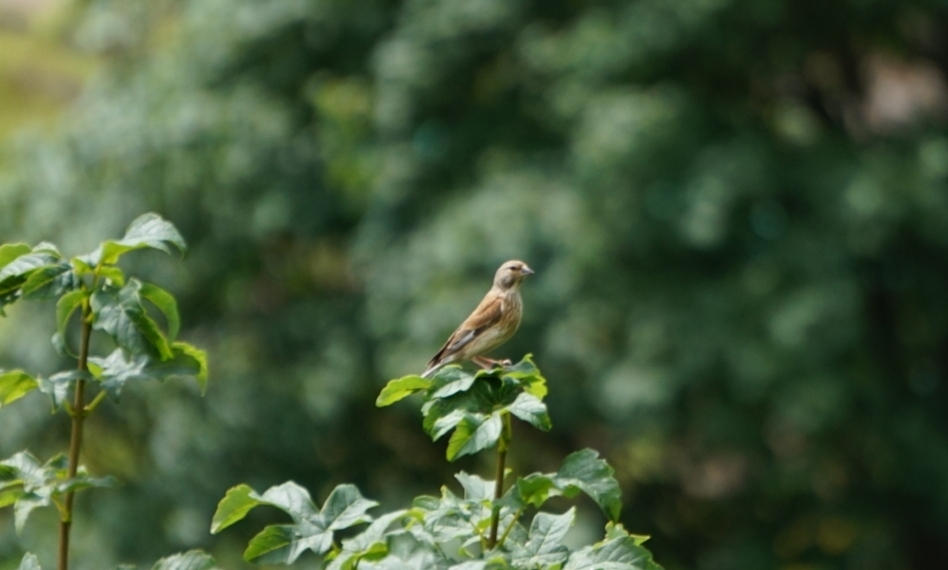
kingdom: Animalia
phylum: Chordata
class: Aves
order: Passeriformes
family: Fringillidae
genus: Linaria
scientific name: Linaria cannabina
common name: Common linnet
